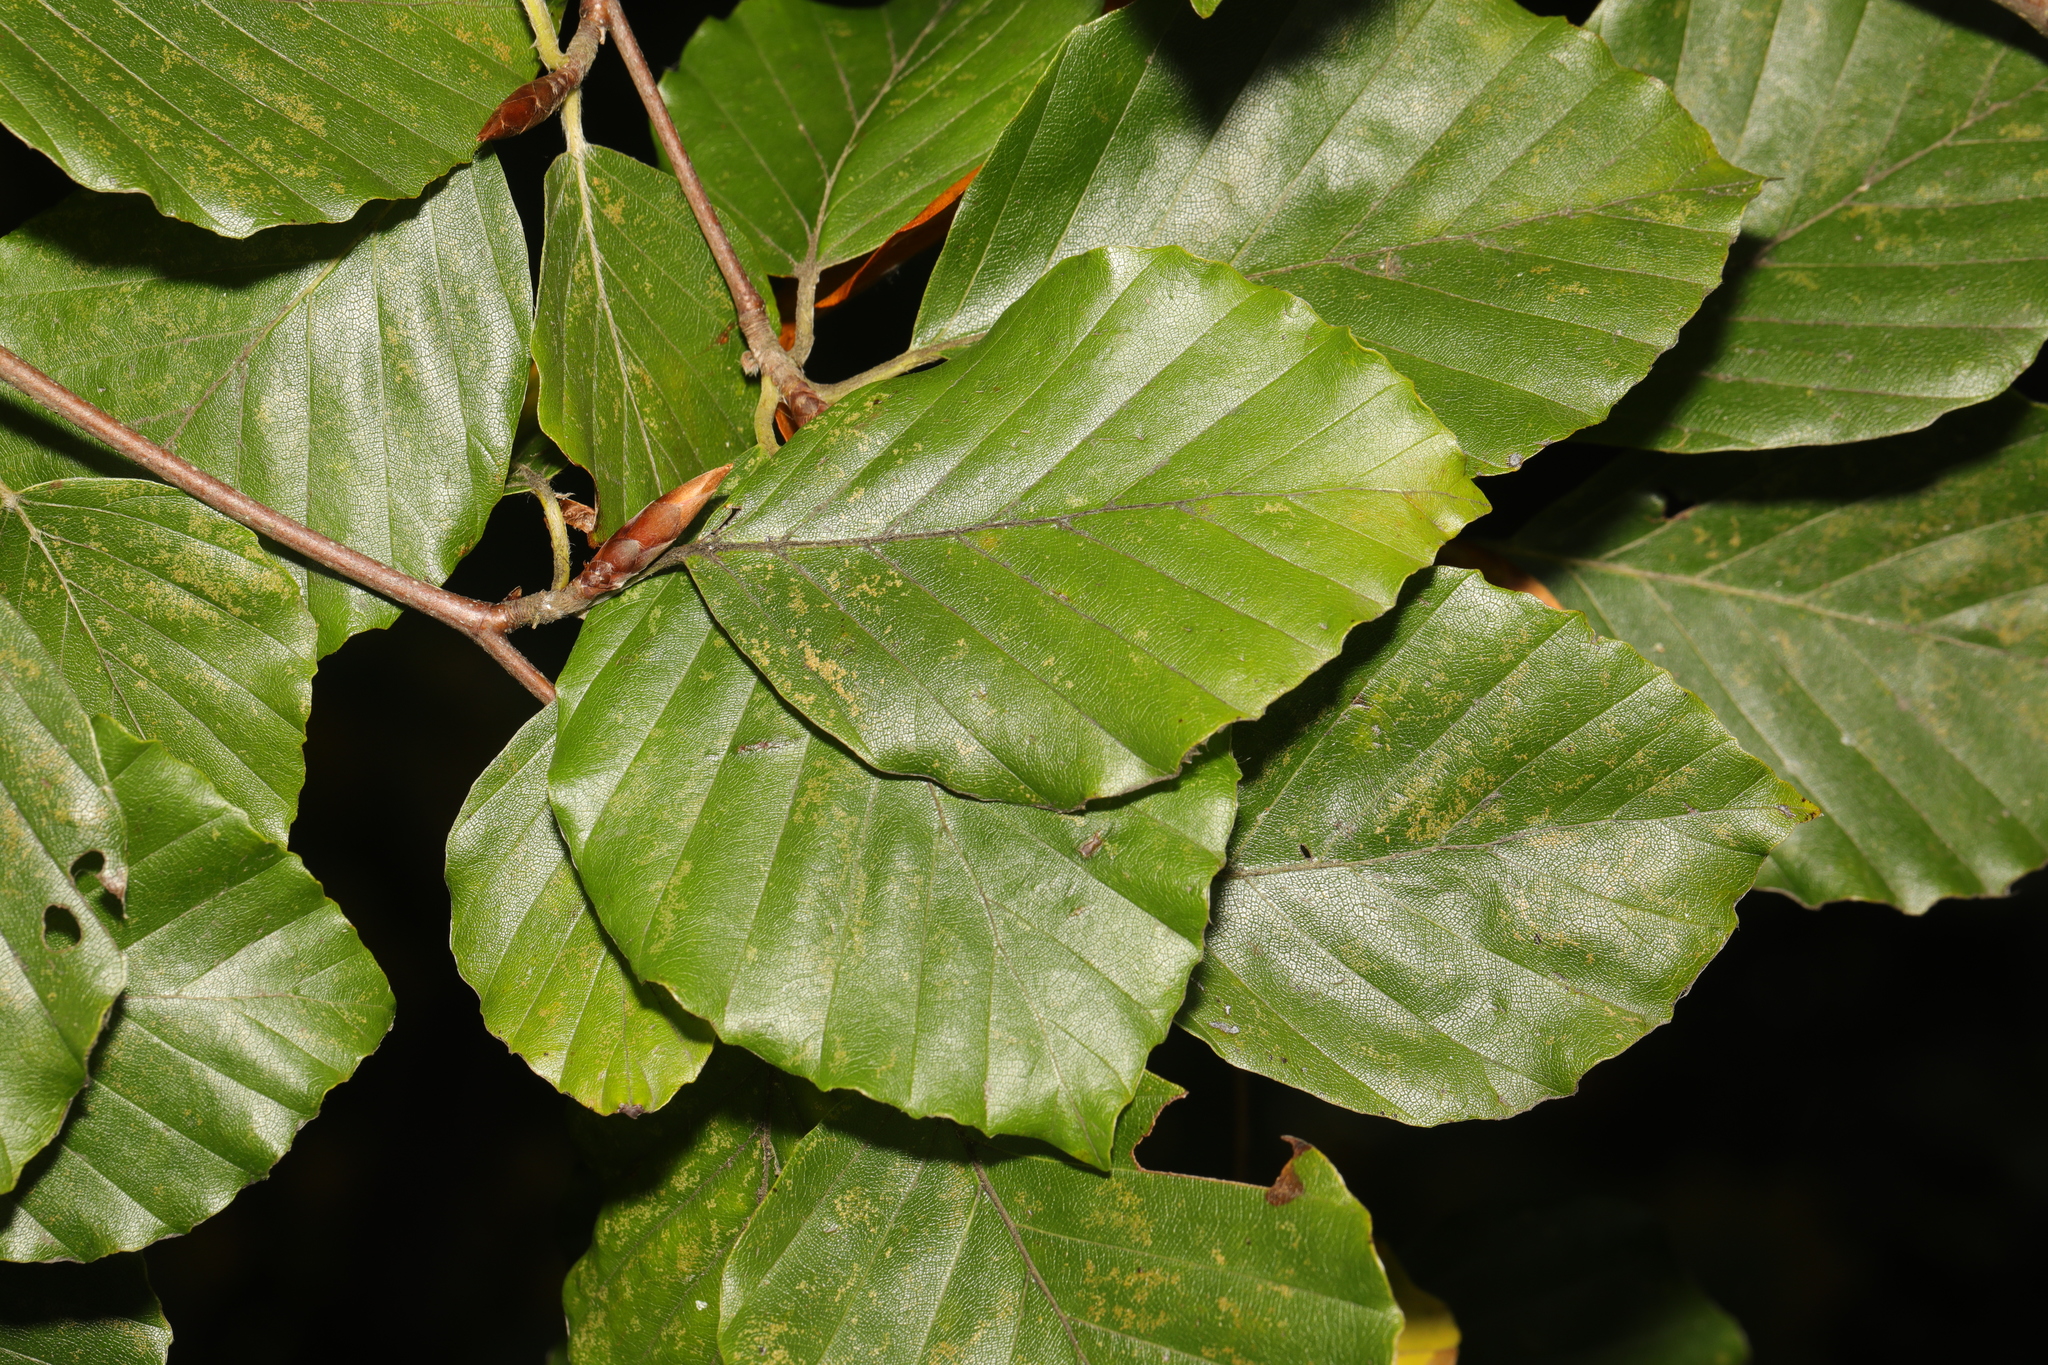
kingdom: Plantae
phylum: Tracheophyta
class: Magnoliopsida
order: Fagales
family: Fagaceae
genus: Fagus
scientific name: Fagus sylvatica
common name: Beech
